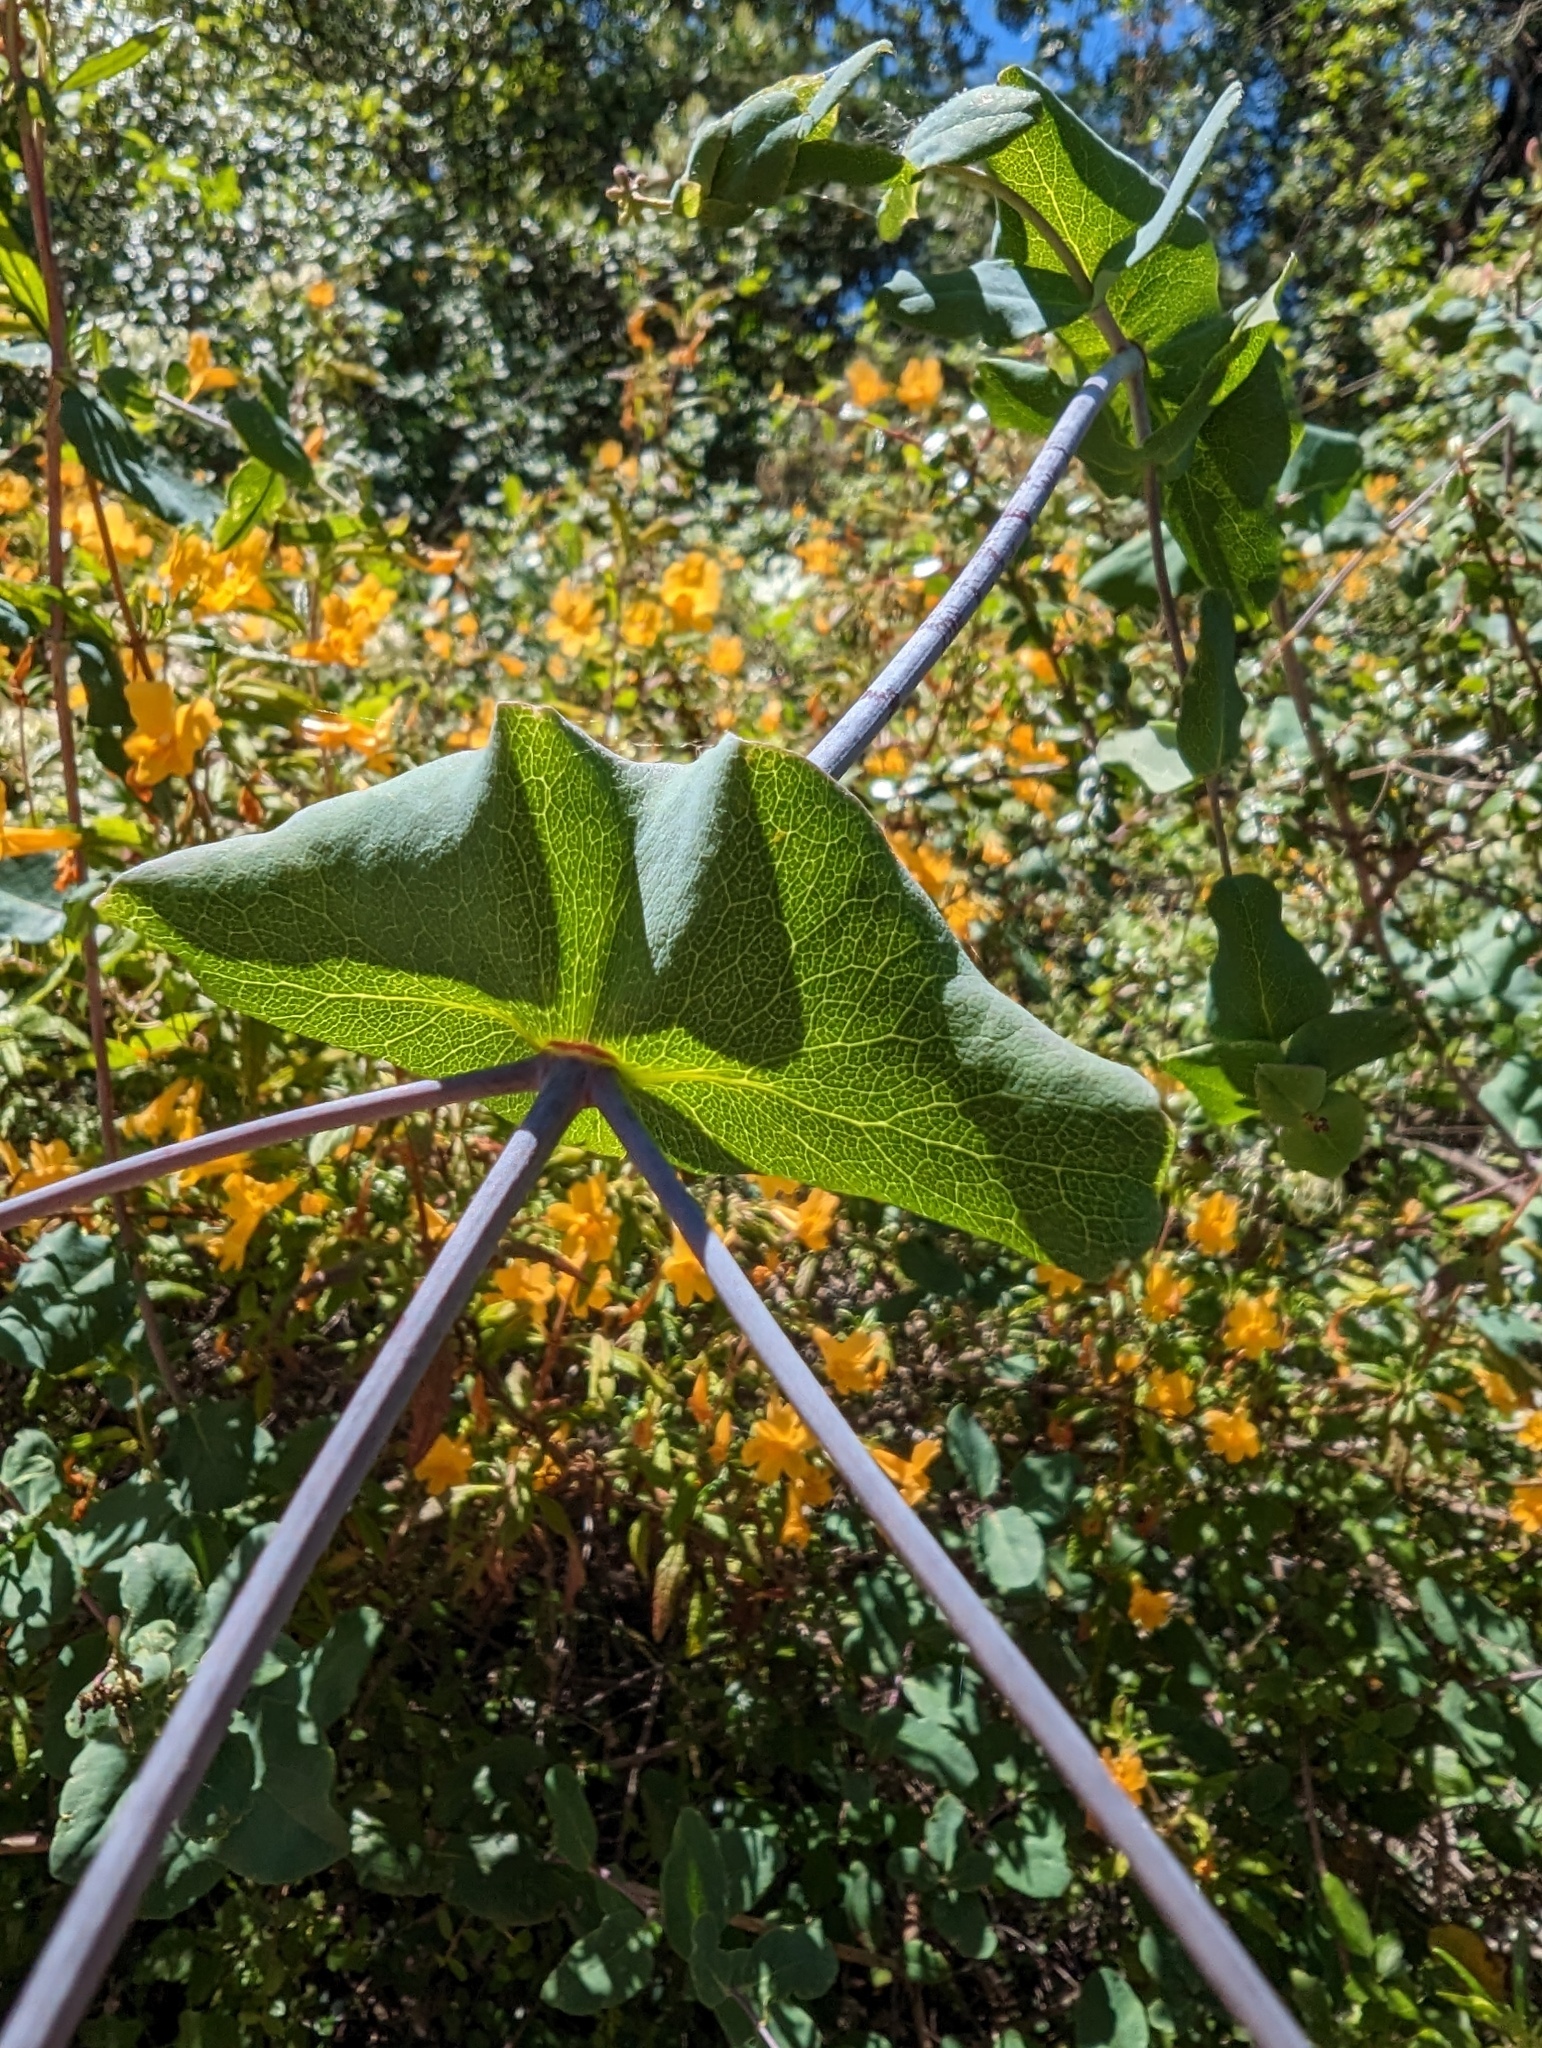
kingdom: Plantae
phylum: Tracheophyta
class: Magnoliopsida
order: Dipsacales
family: Caprifoliaceae
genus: Lonicera
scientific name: Lonicera hispidula
